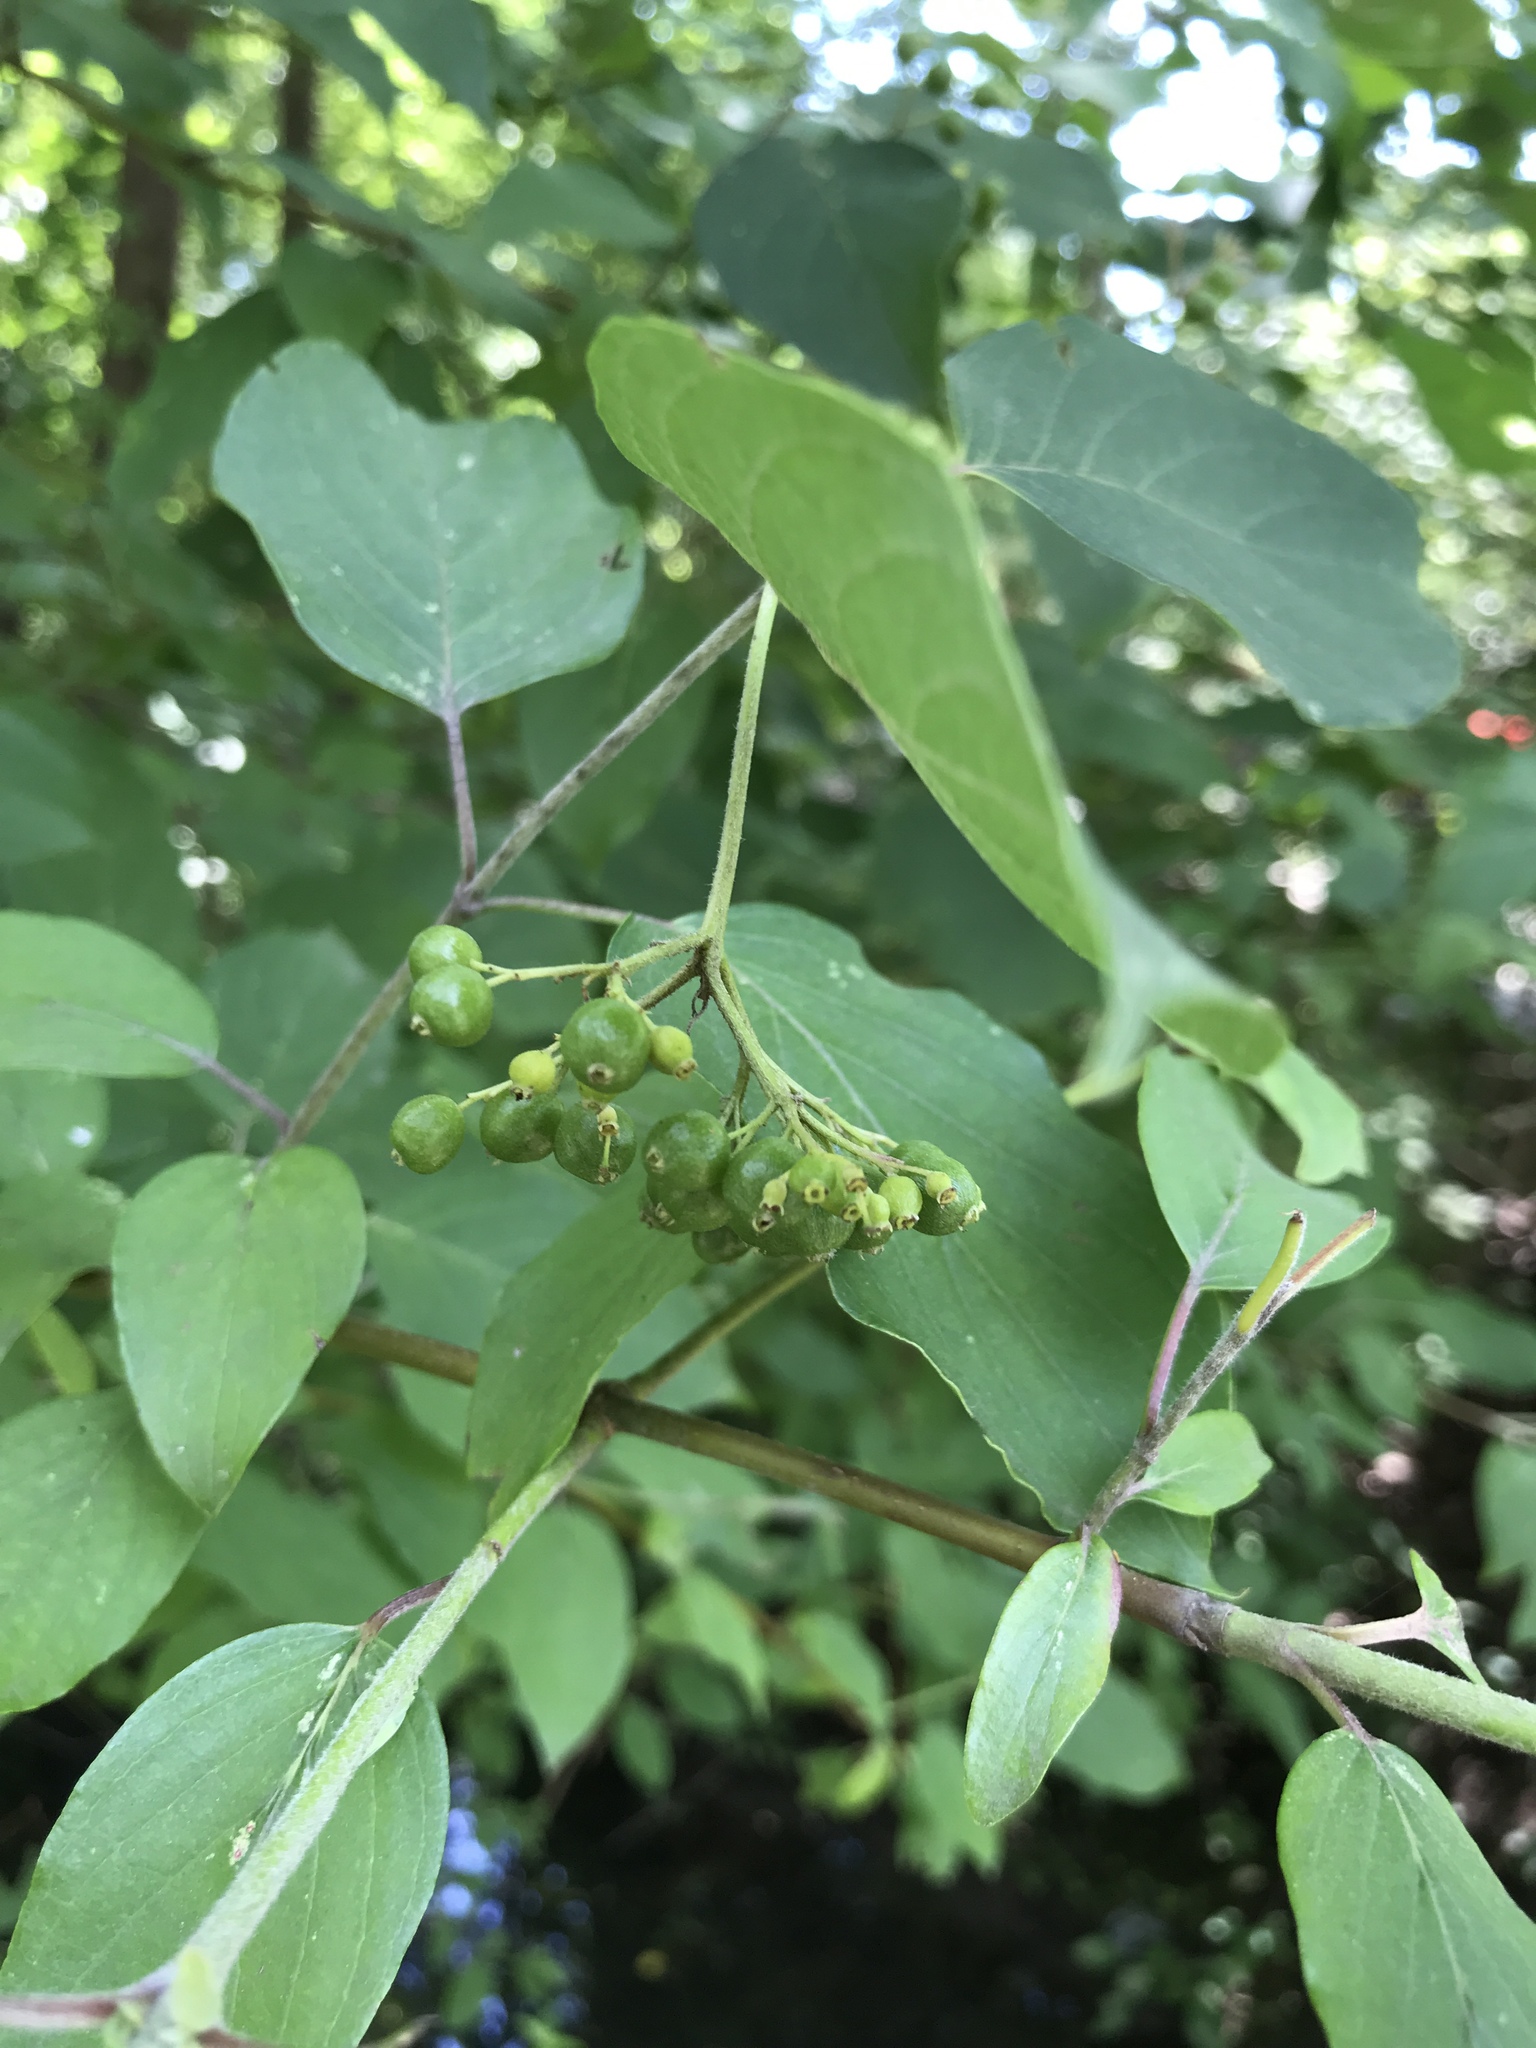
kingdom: Plantae
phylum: Tracheophyta
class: Magnoliopsida
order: Cornales
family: Cornaceae
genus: Cornus
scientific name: Cornus amomum
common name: Silky dogwood
